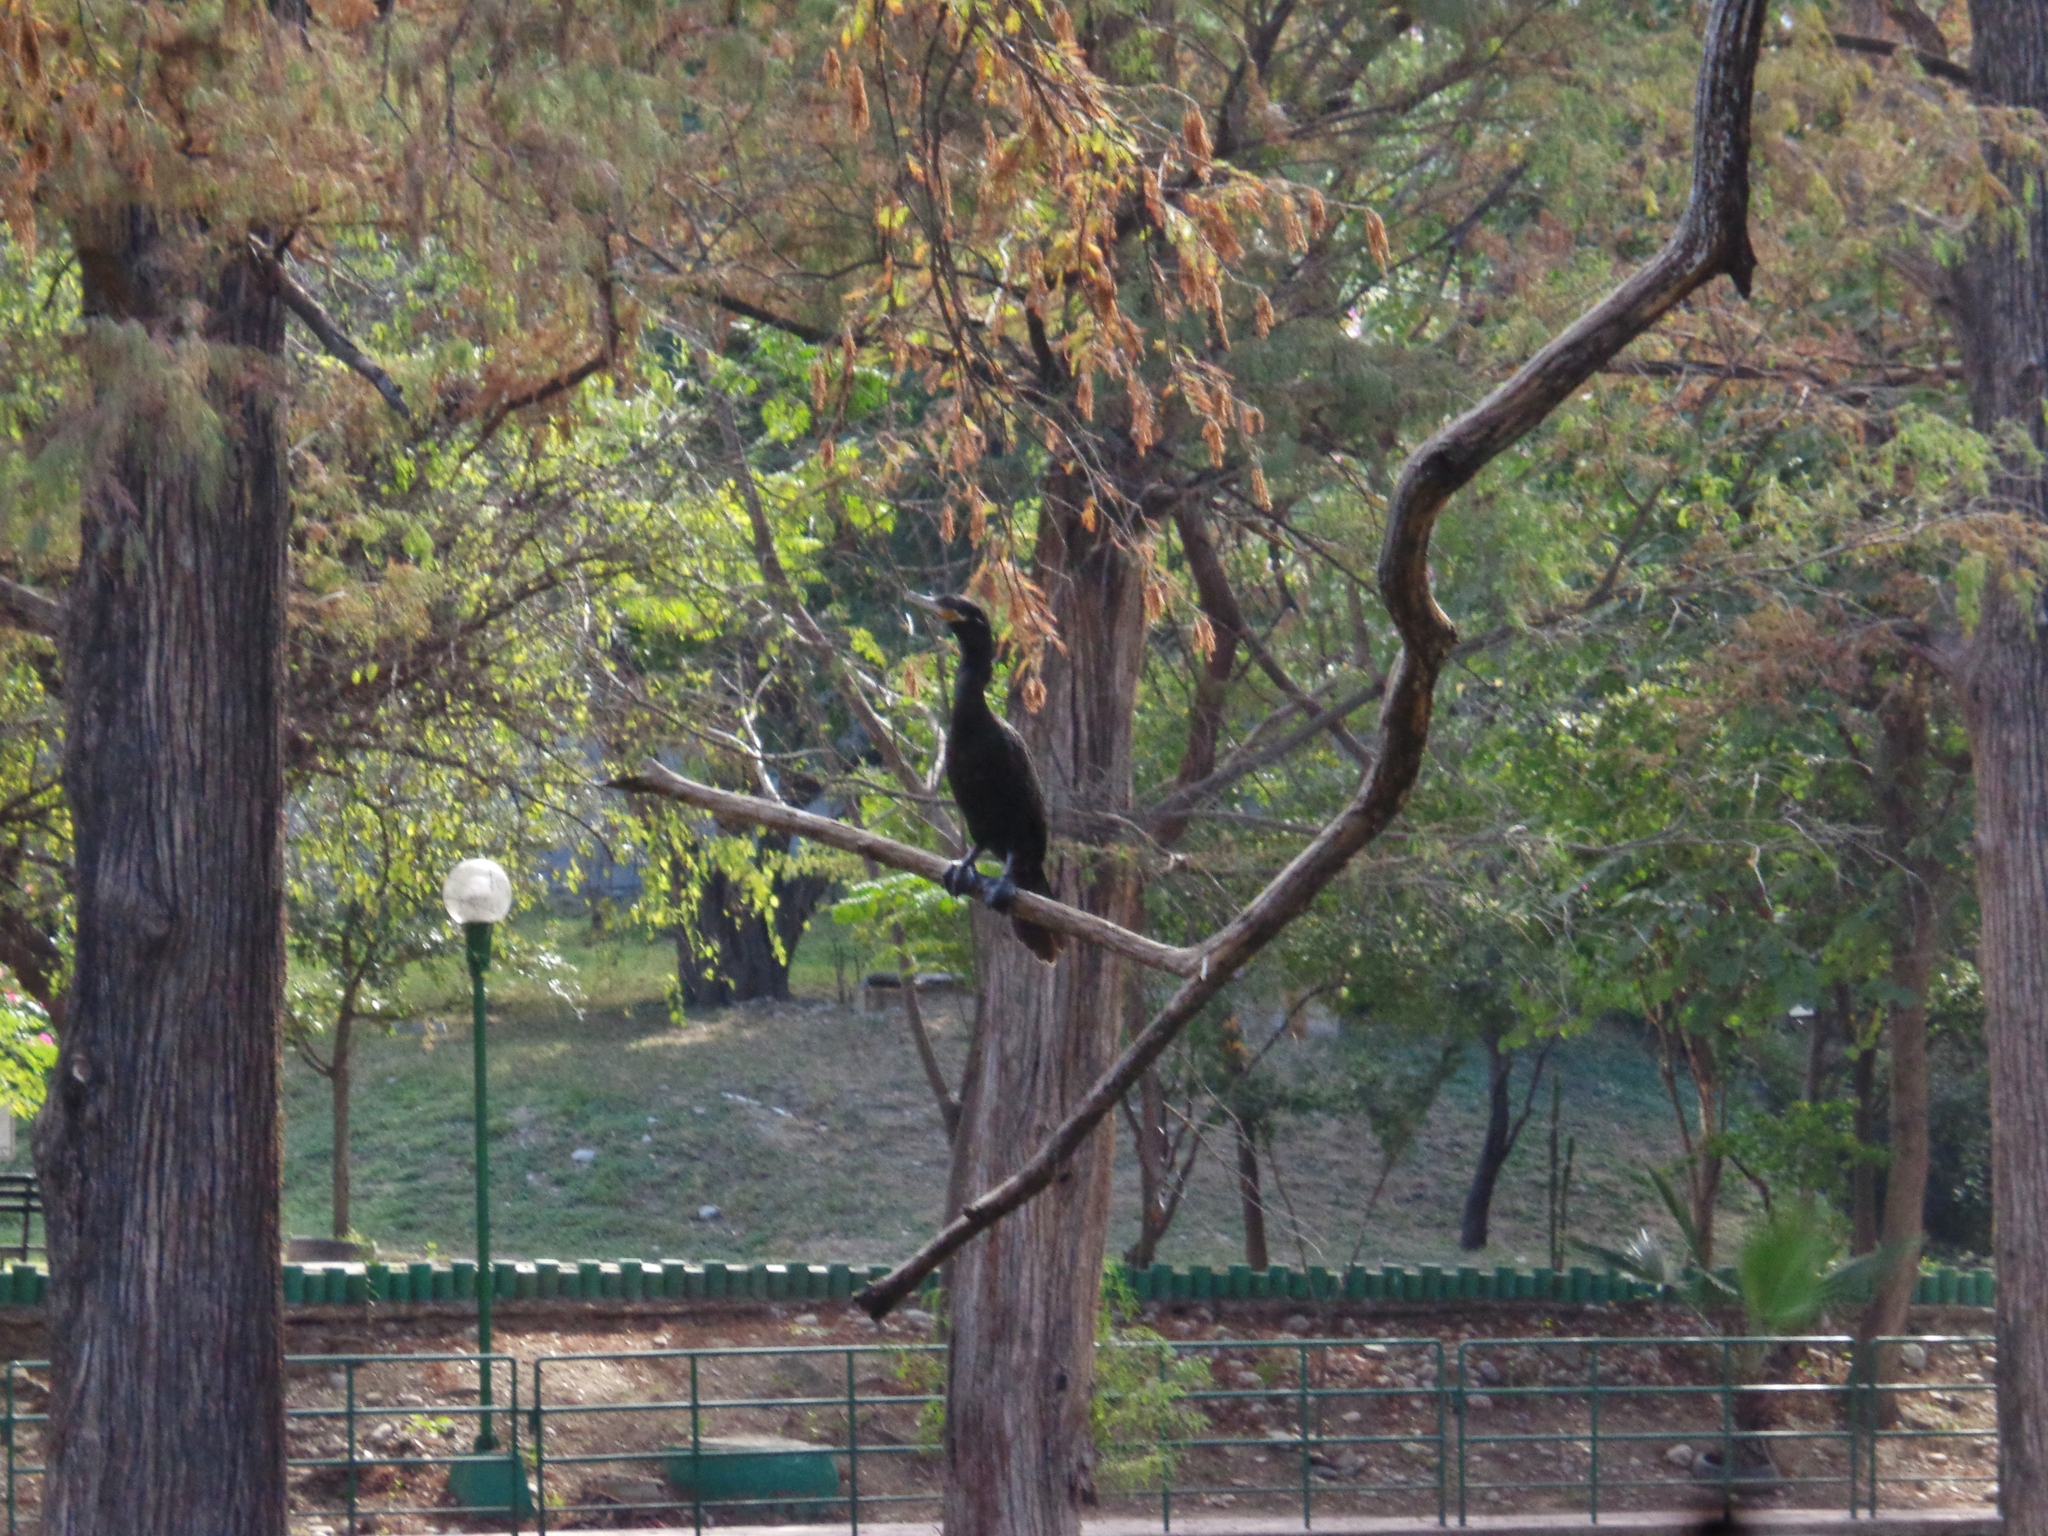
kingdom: Animalia
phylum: Chordata
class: Aves
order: Suliformes
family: Phalacrocoracidae
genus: Phalacrocorax
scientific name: Phalacrocorax brasilianus
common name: Neotropic cormorant
